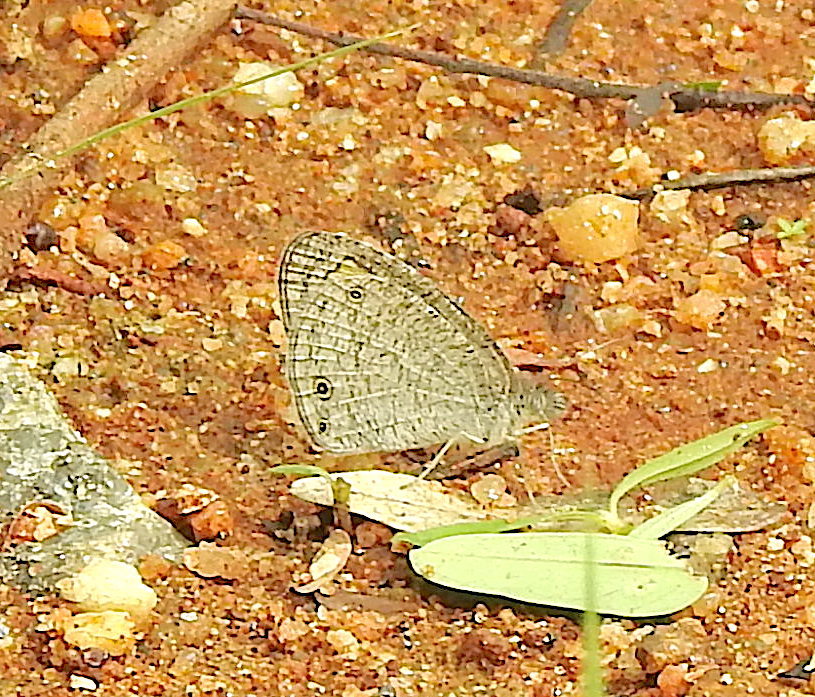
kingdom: Animalia
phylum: Arthropoda
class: Insecta
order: Lepidoptera
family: Nymphalidae
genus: Ypthima
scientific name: Ypthima asterope
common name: African ringlet
